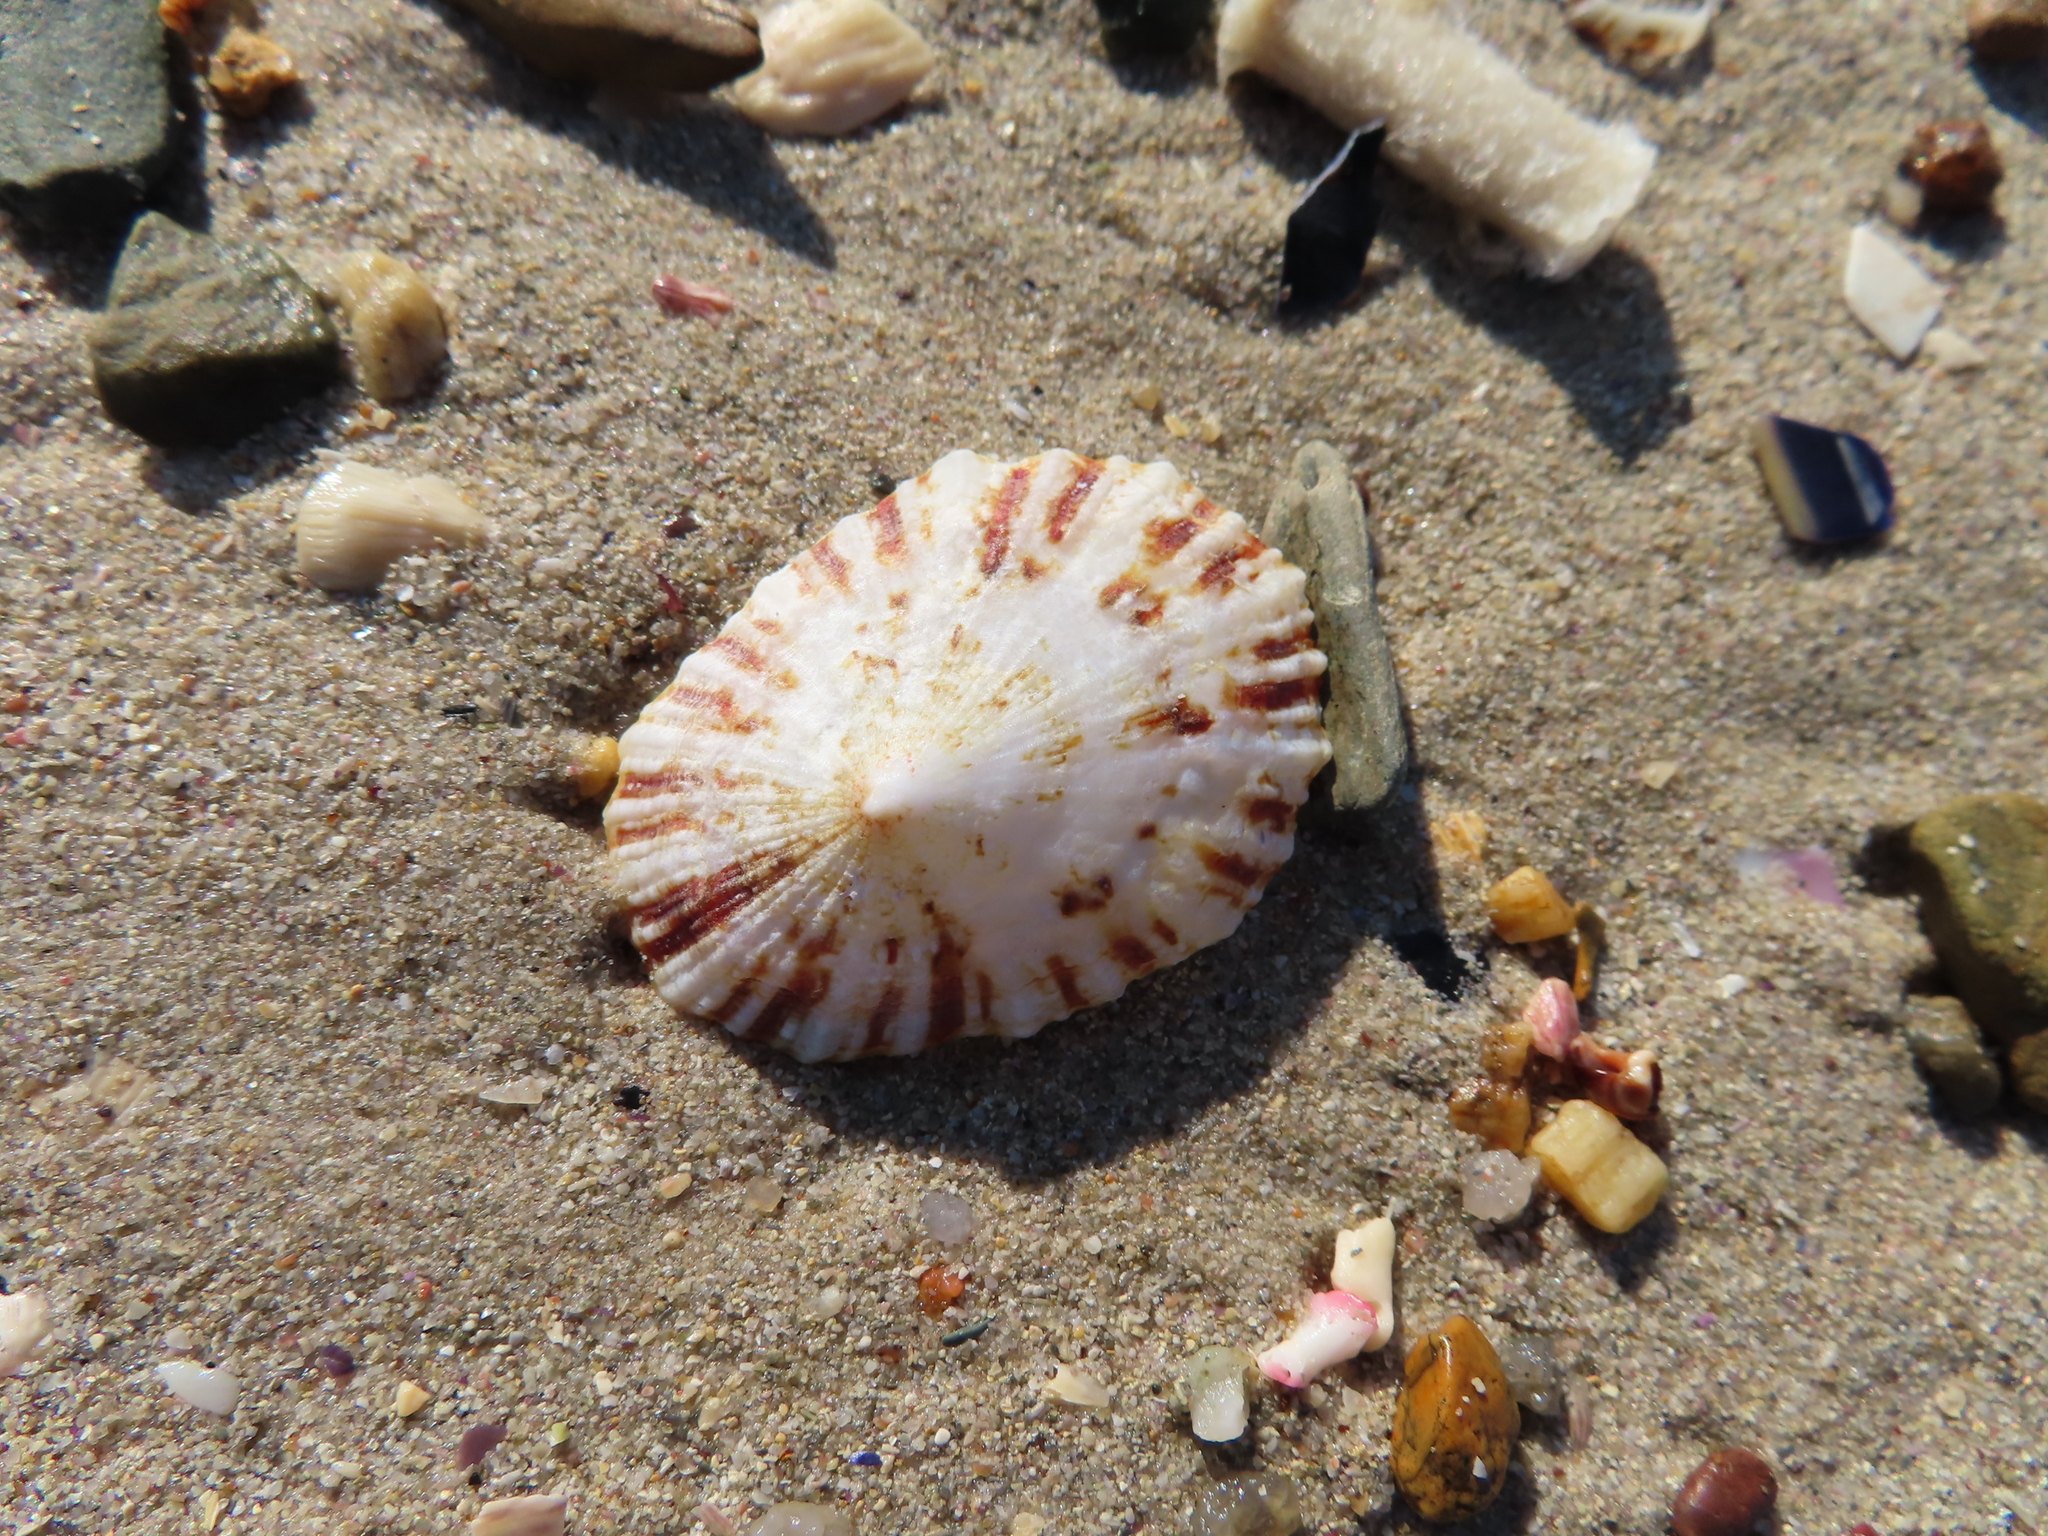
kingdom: Animalia
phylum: Mollusca
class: Gastropoda
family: Patellidae
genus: Scutellastra
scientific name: Scutellastra cochlear
